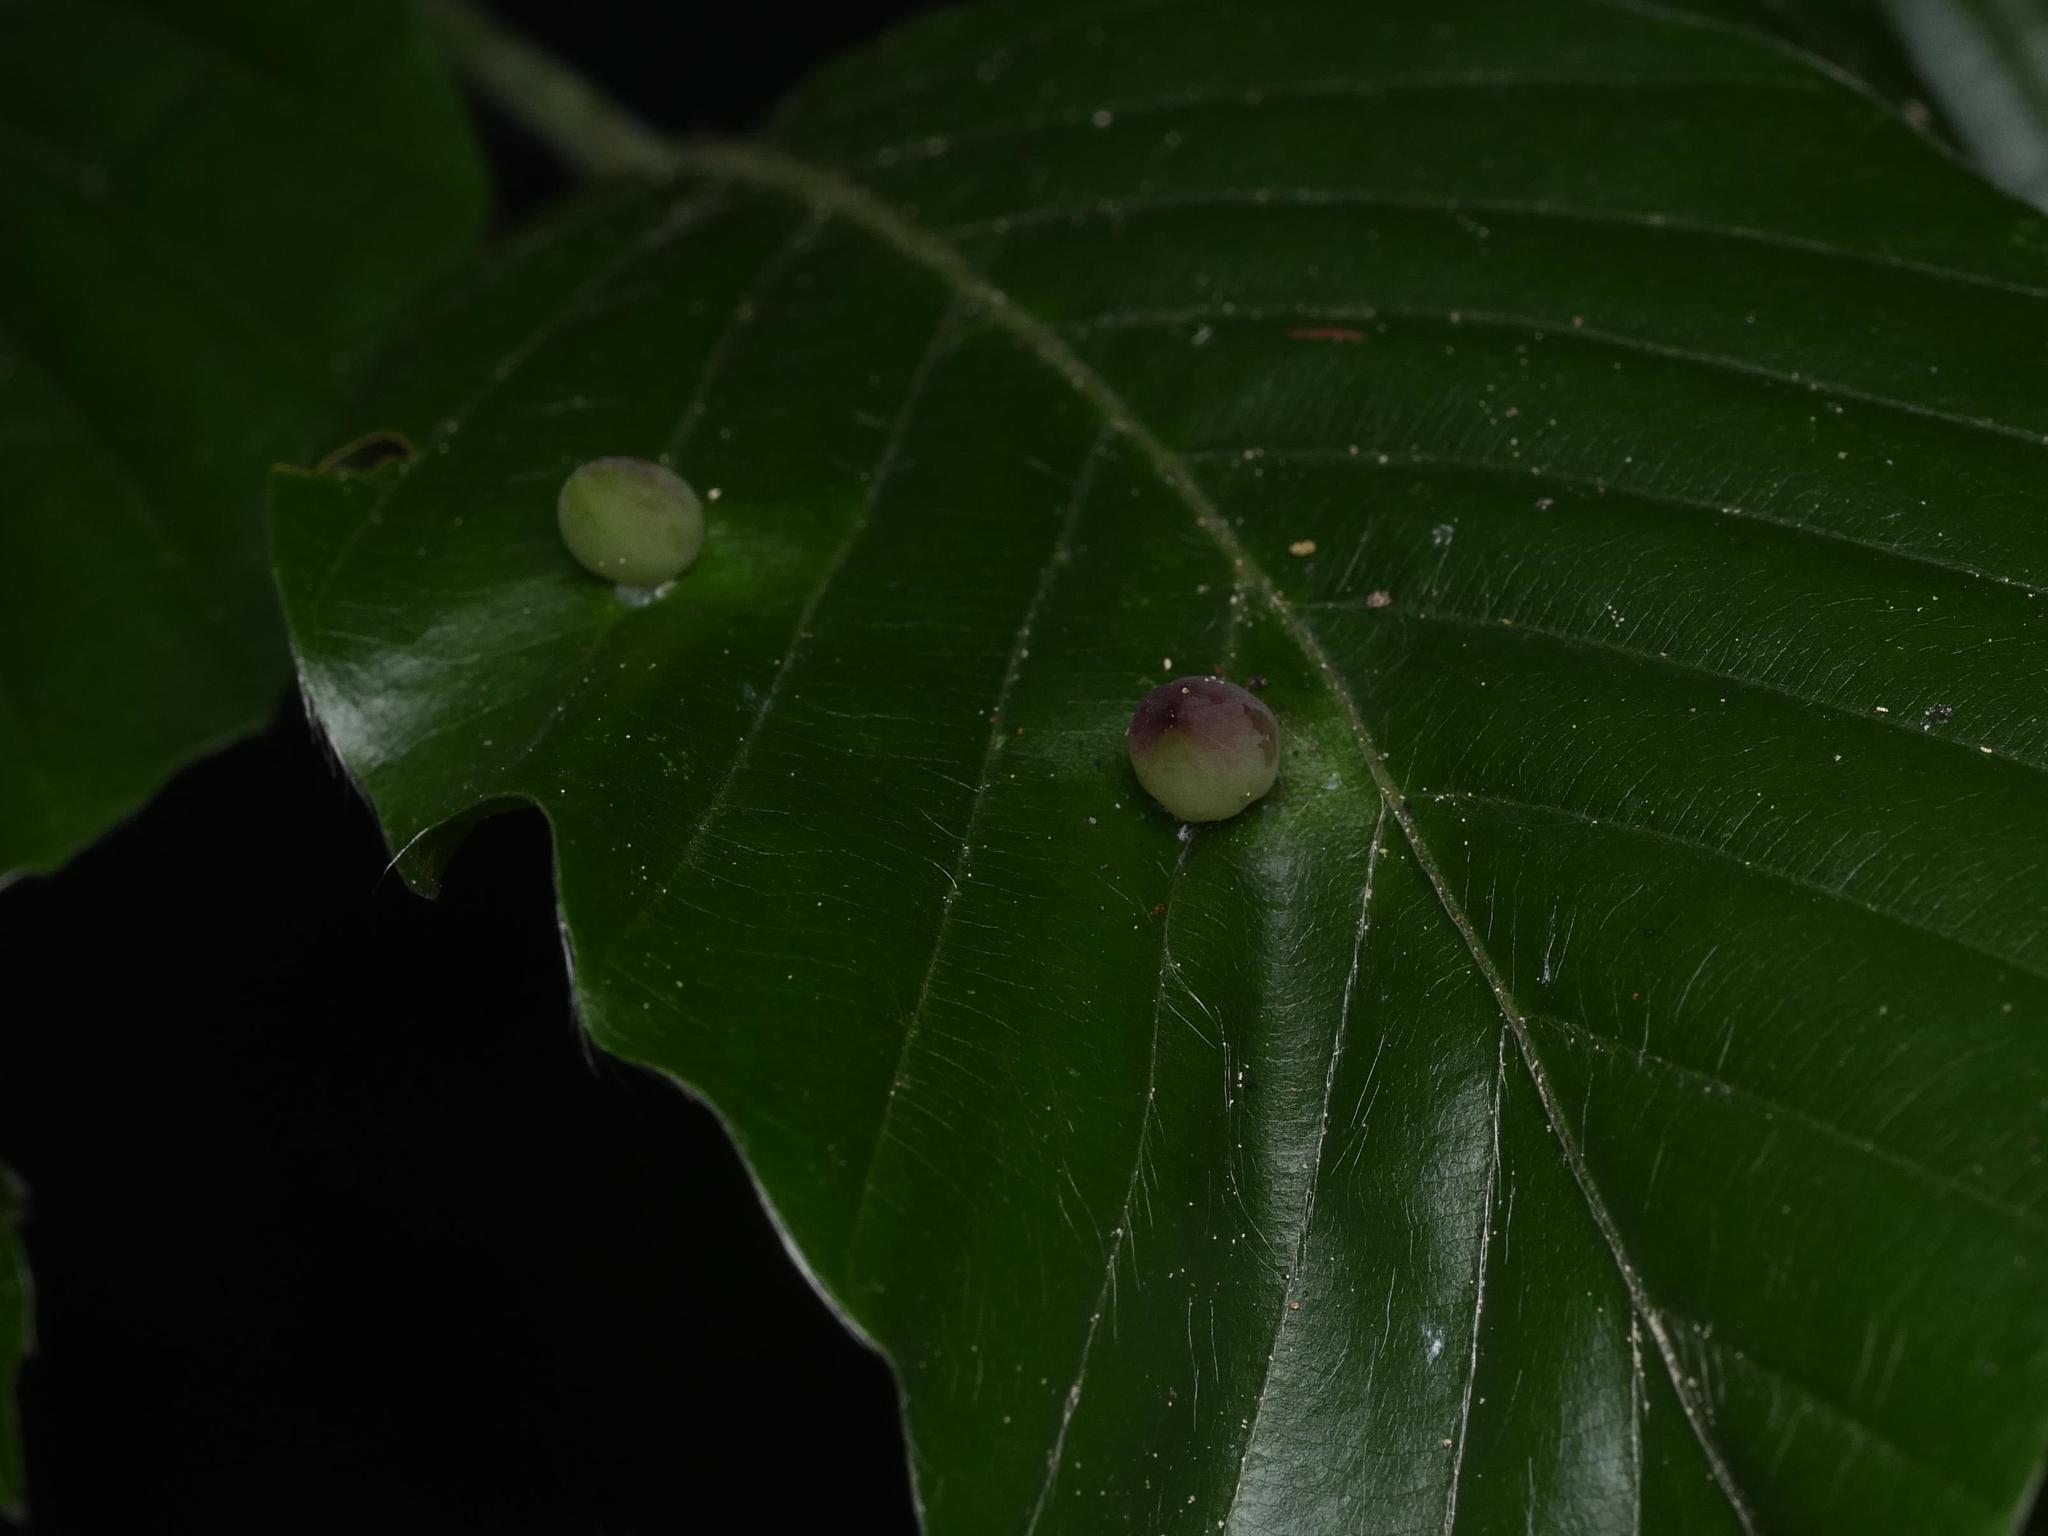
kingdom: Animalia
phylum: Arthropoda
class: Insecta
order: Diptera
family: Cecidomyiidae
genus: Mikiola
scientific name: Mikiola fagi
